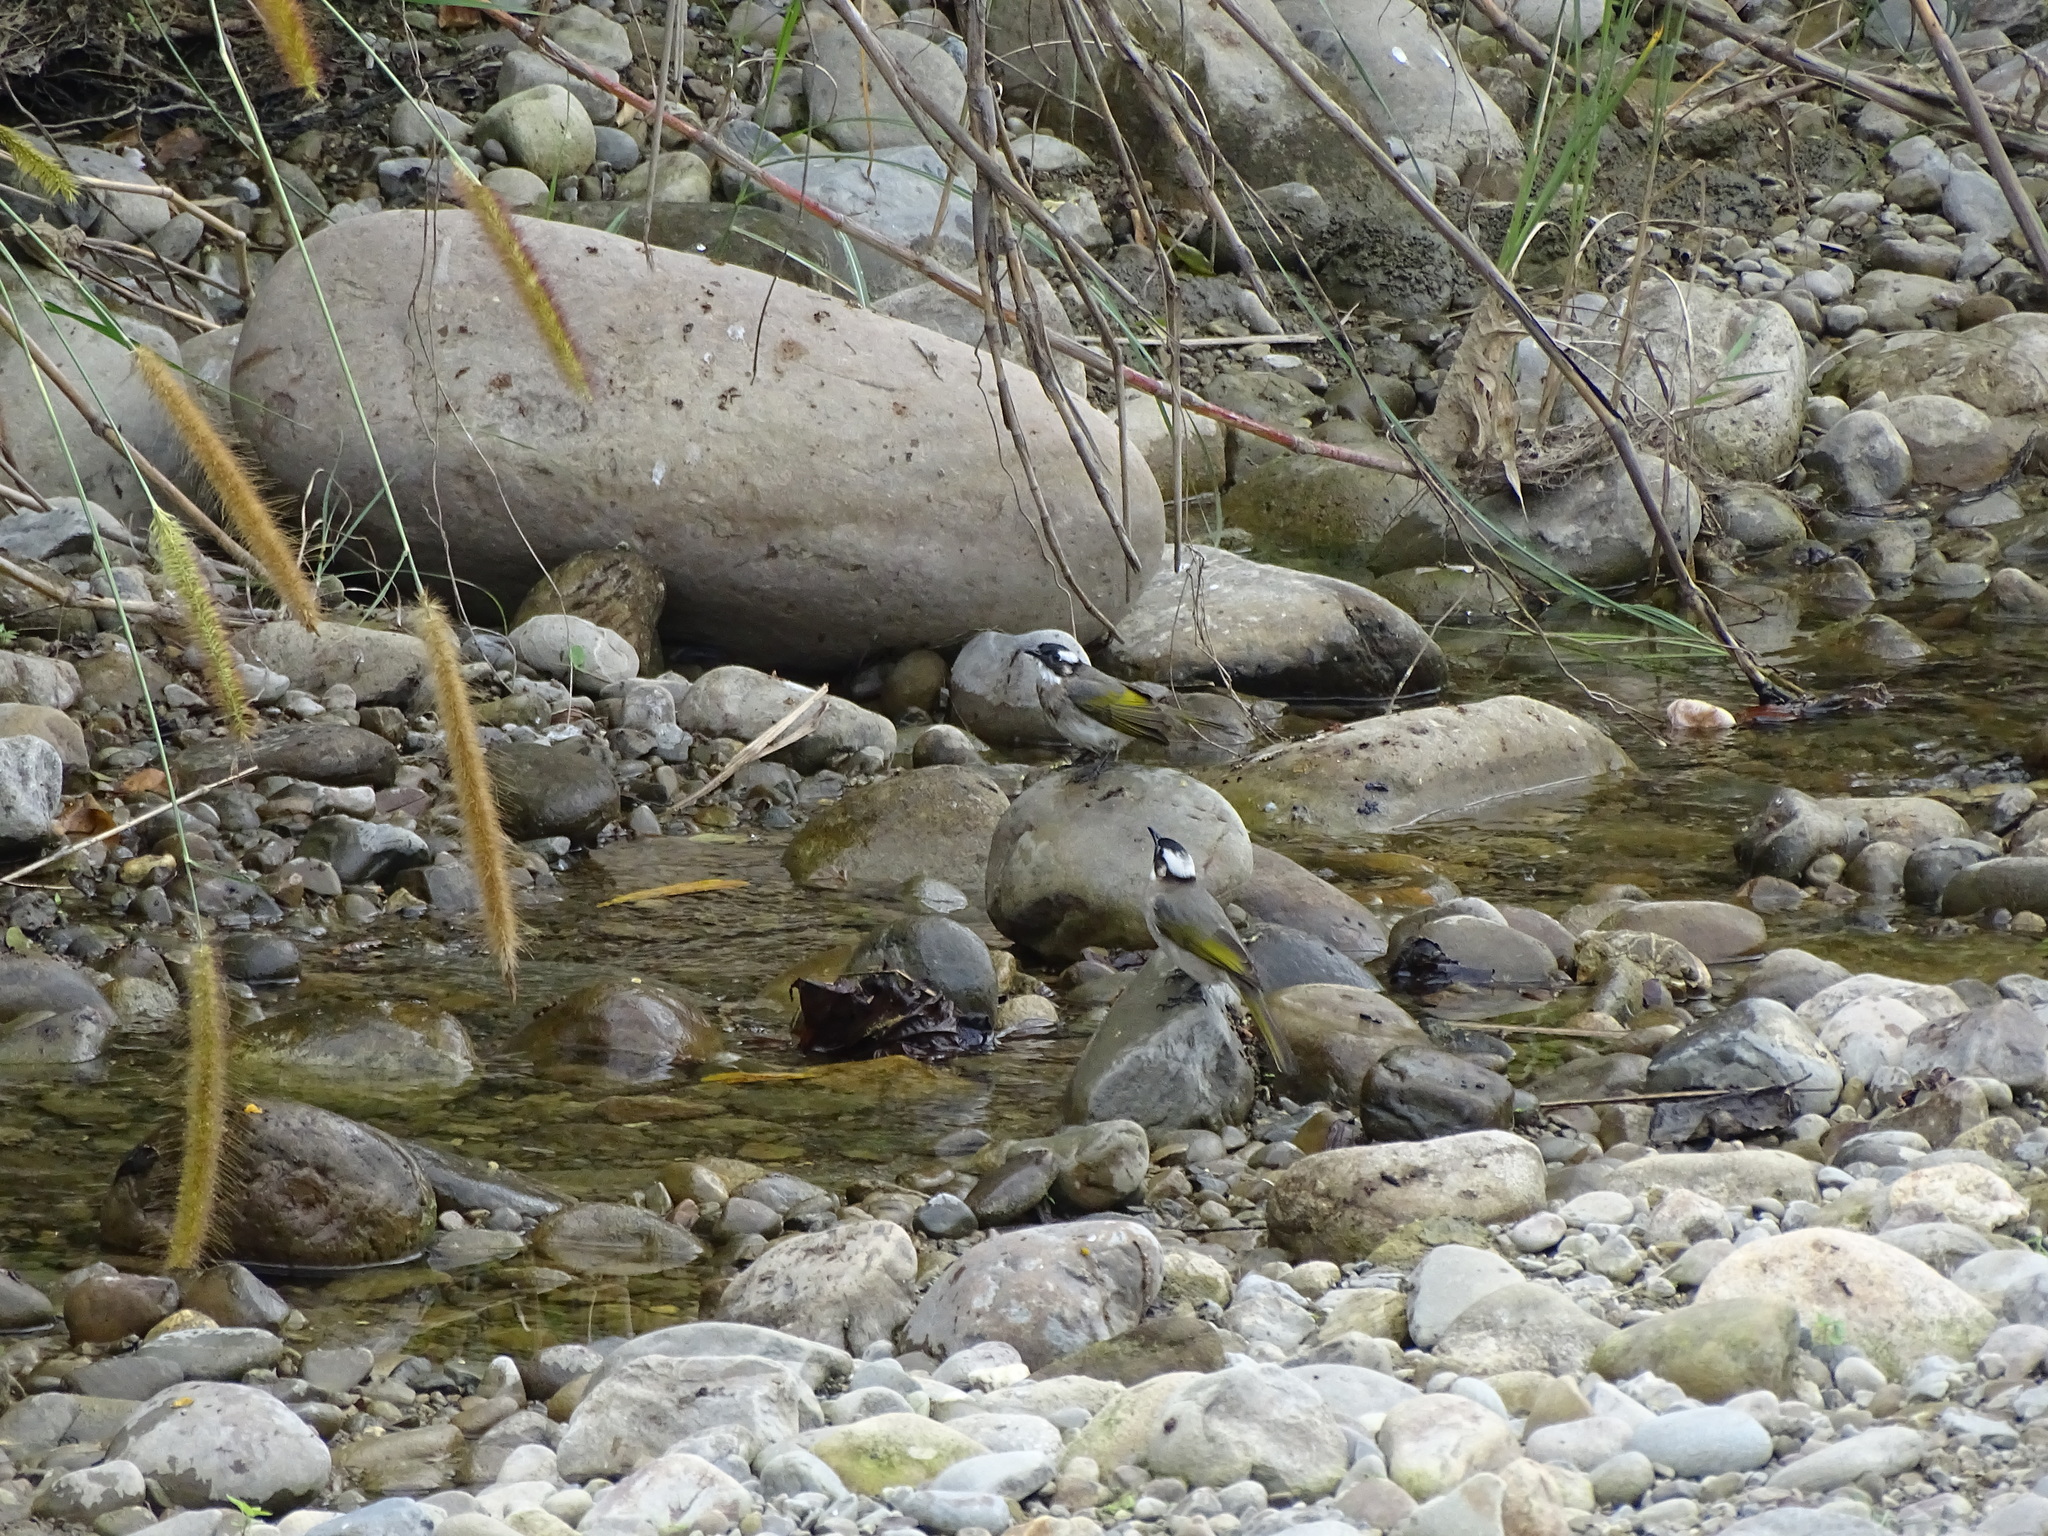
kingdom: Animalia
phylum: Chordata
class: Aves
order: Passeriformes
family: Pycnonotidae
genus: Pycnonotus
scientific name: Pycnonotus sinensis
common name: Light-vented bulbul
